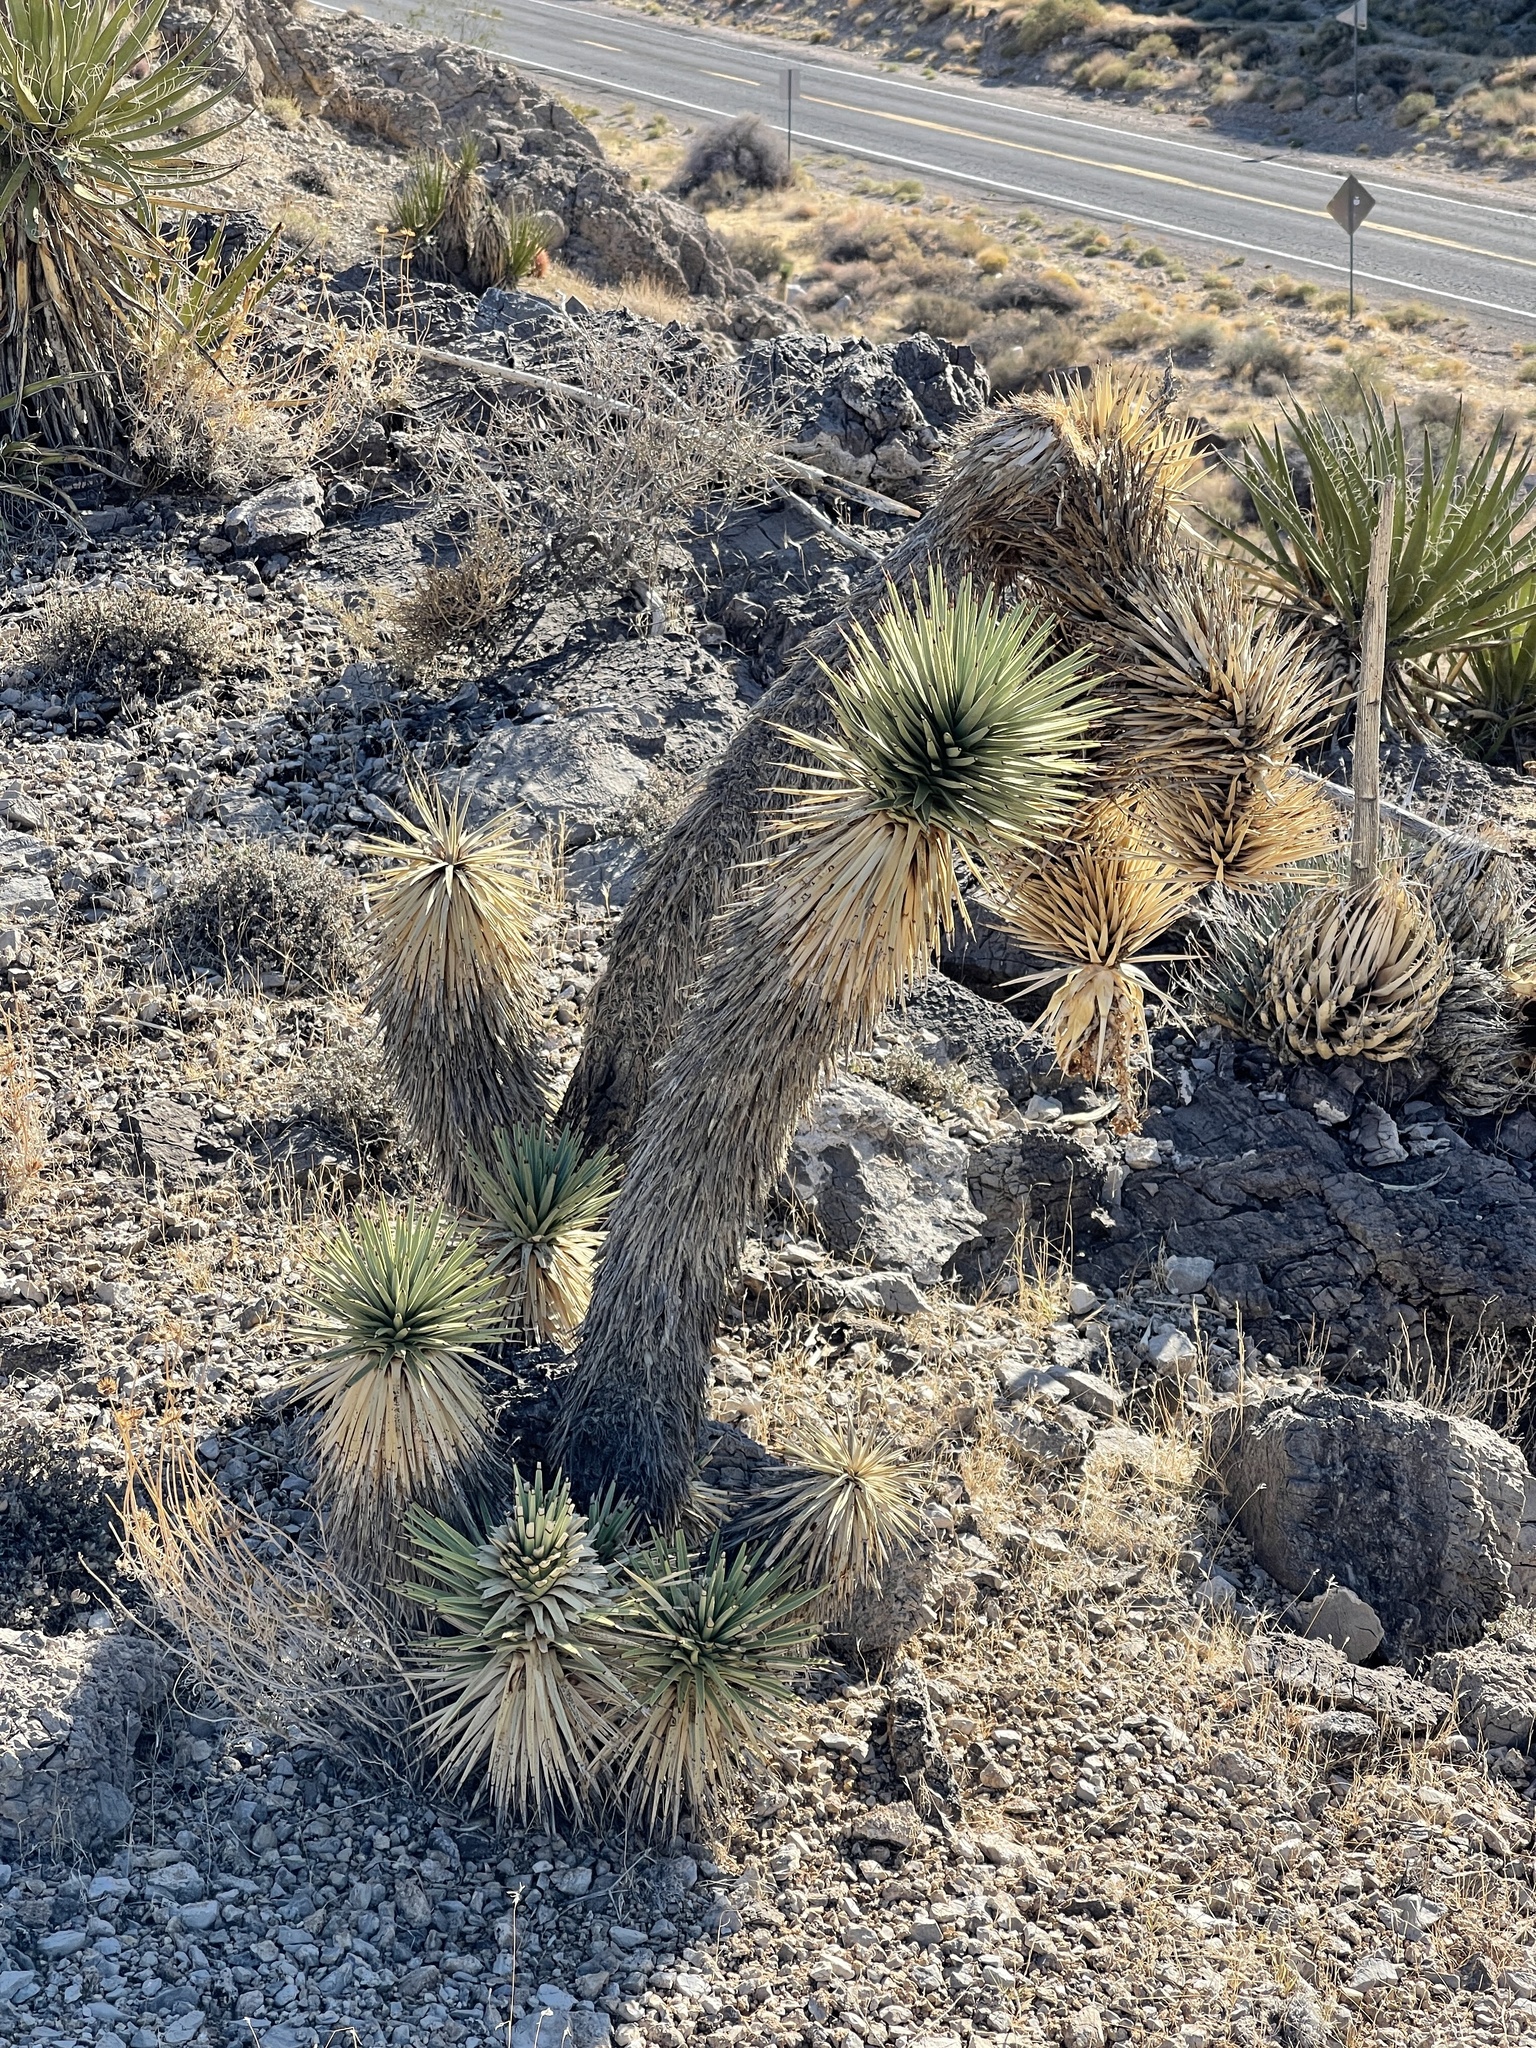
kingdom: Plantae
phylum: Tracheophyta
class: Liliopsida
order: Asparagales
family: Asparagaceae
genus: Yucca
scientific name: Yucca brevifolia
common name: Joshua tree
